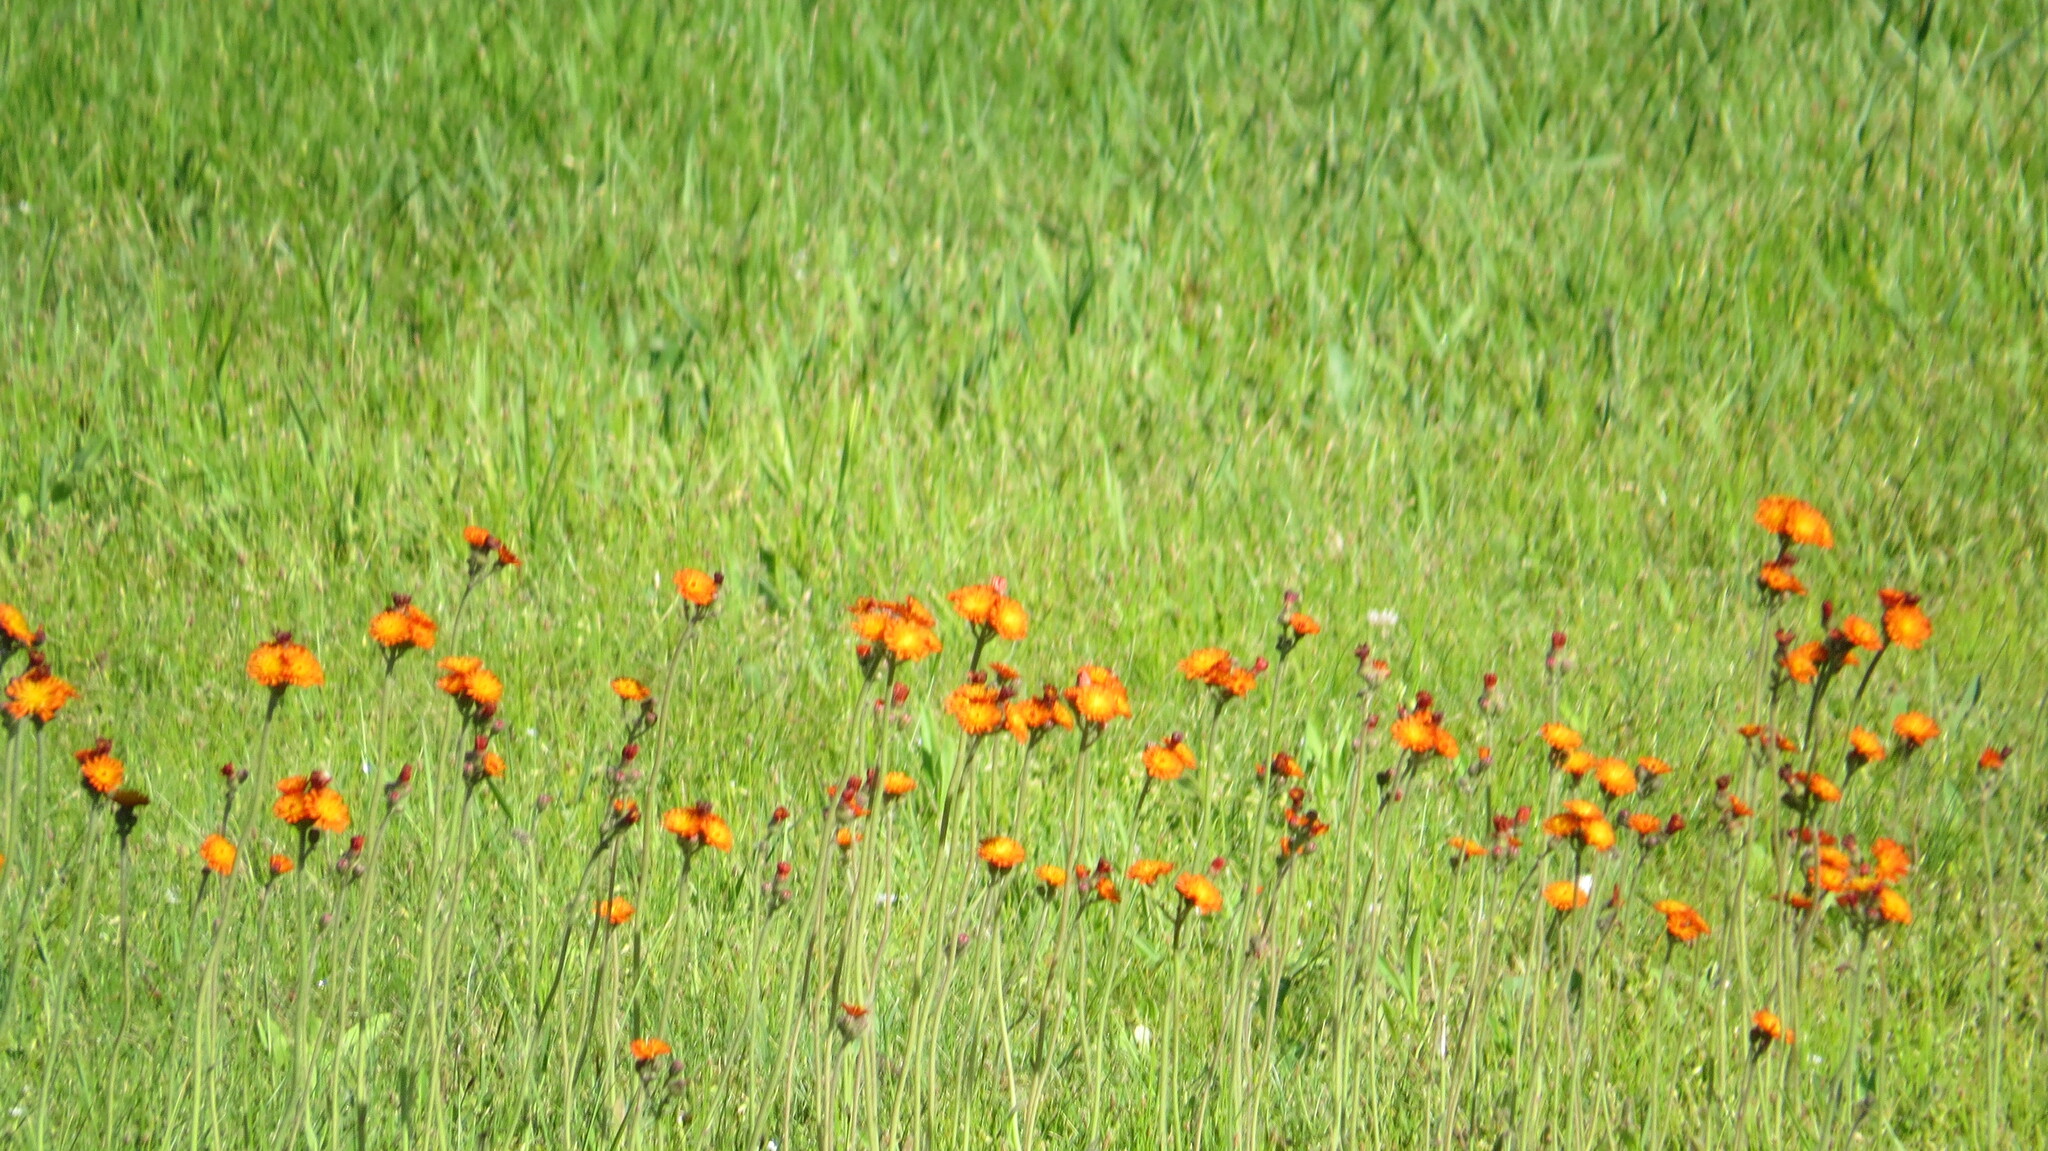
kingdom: Plantae
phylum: Tracheophyta
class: Magnoliopsida
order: Asterales
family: Asteraceae
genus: Pilosella
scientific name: Pilosella aurantiaca
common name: Fox-and-cubs
